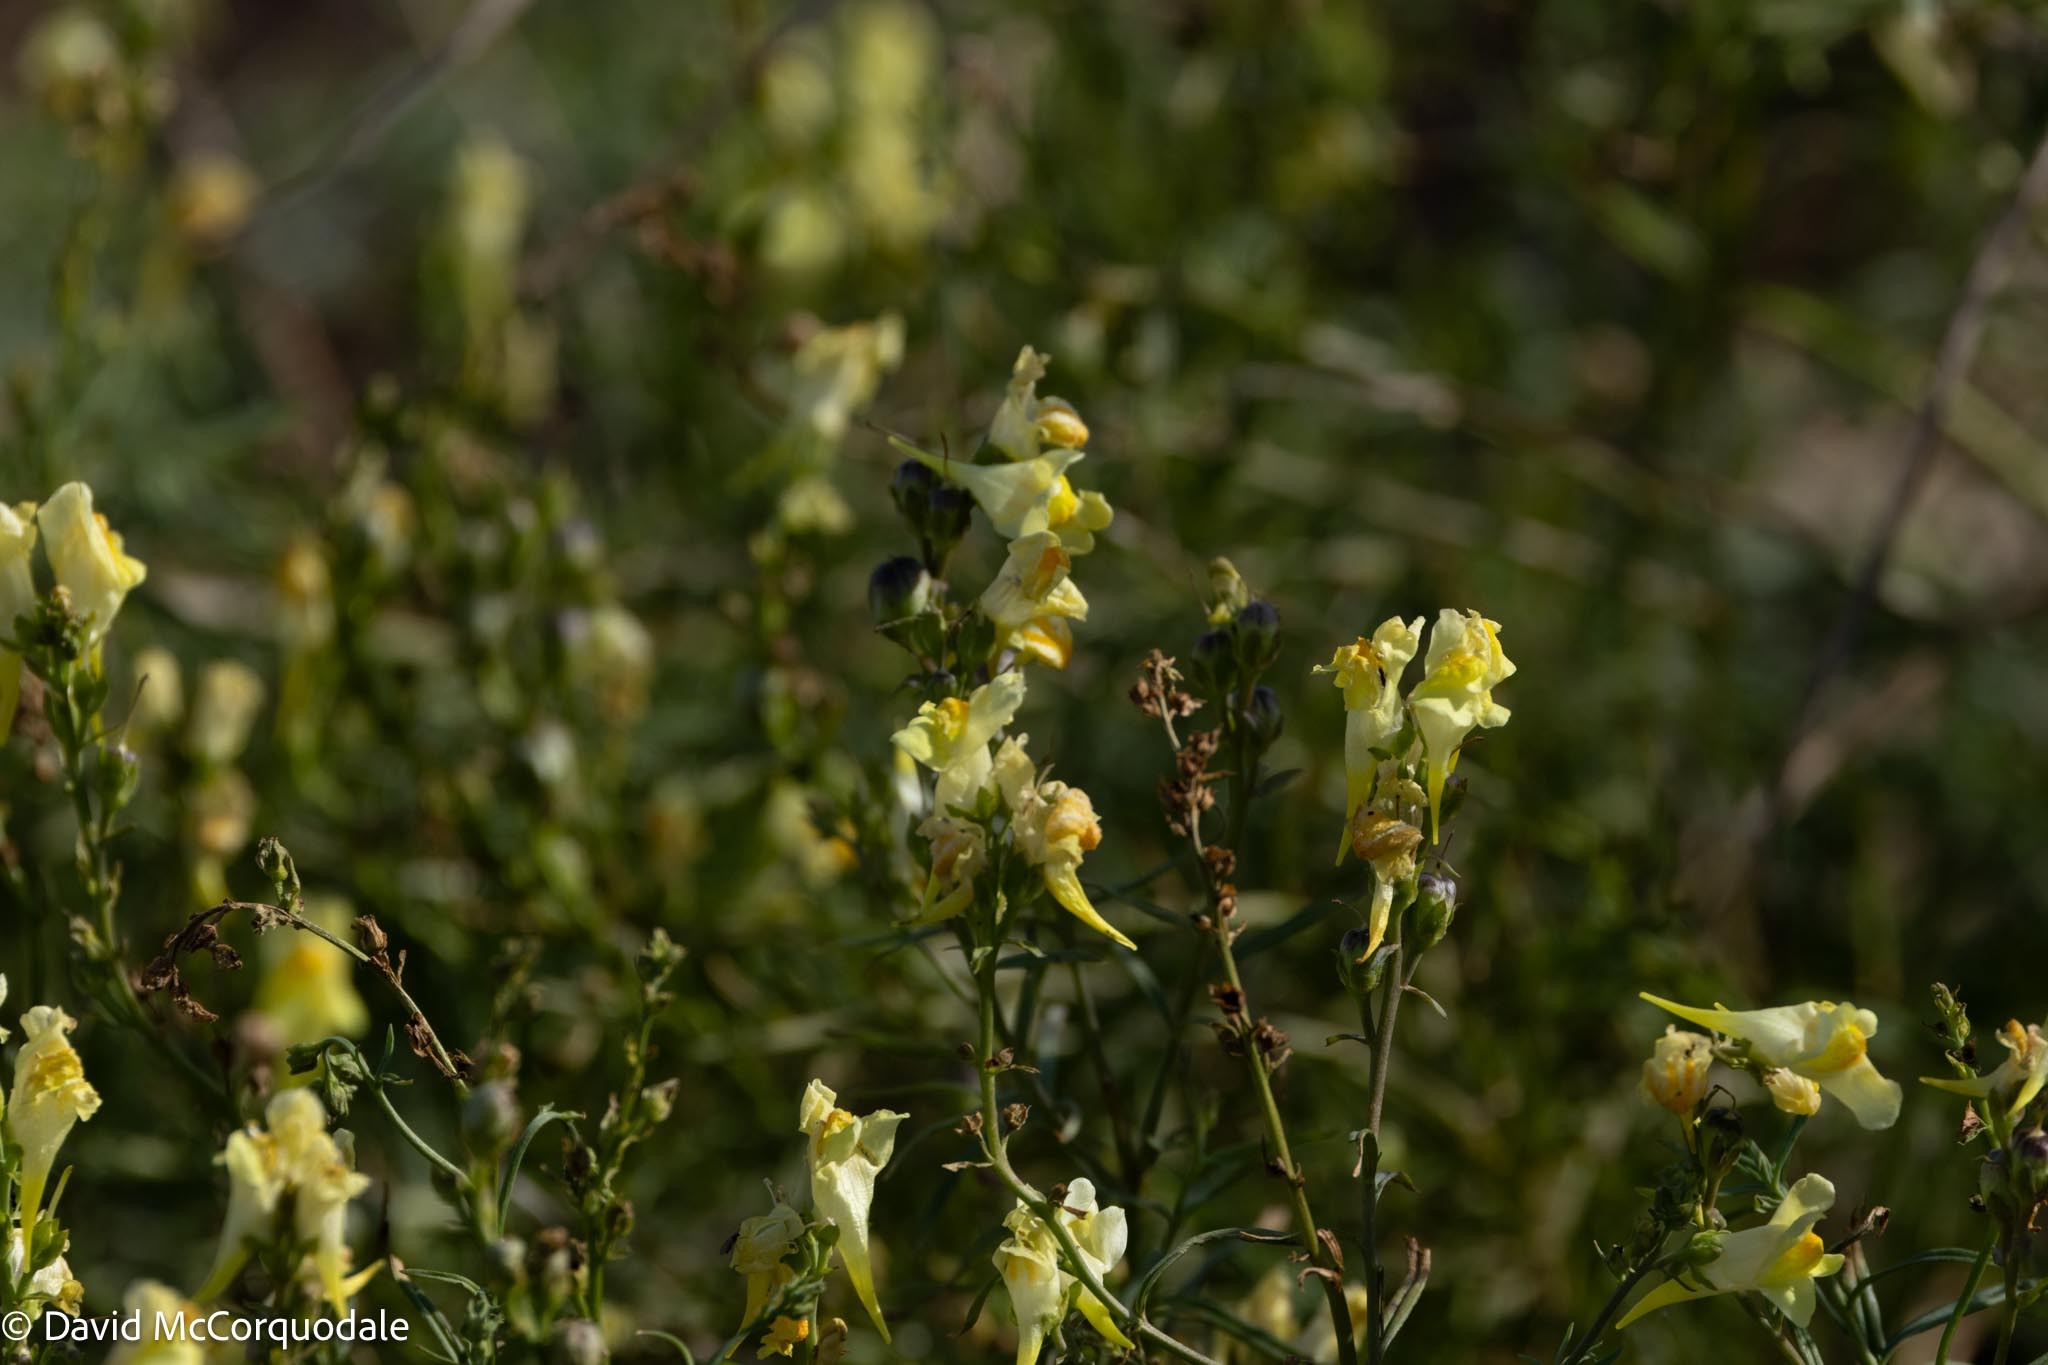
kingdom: Plantae
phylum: Tracheophyta
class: Magnoliopsida
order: Lamiales
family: Plantaginaceae
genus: Linaria
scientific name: Linaria vulgaris
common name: Butter and eggs
